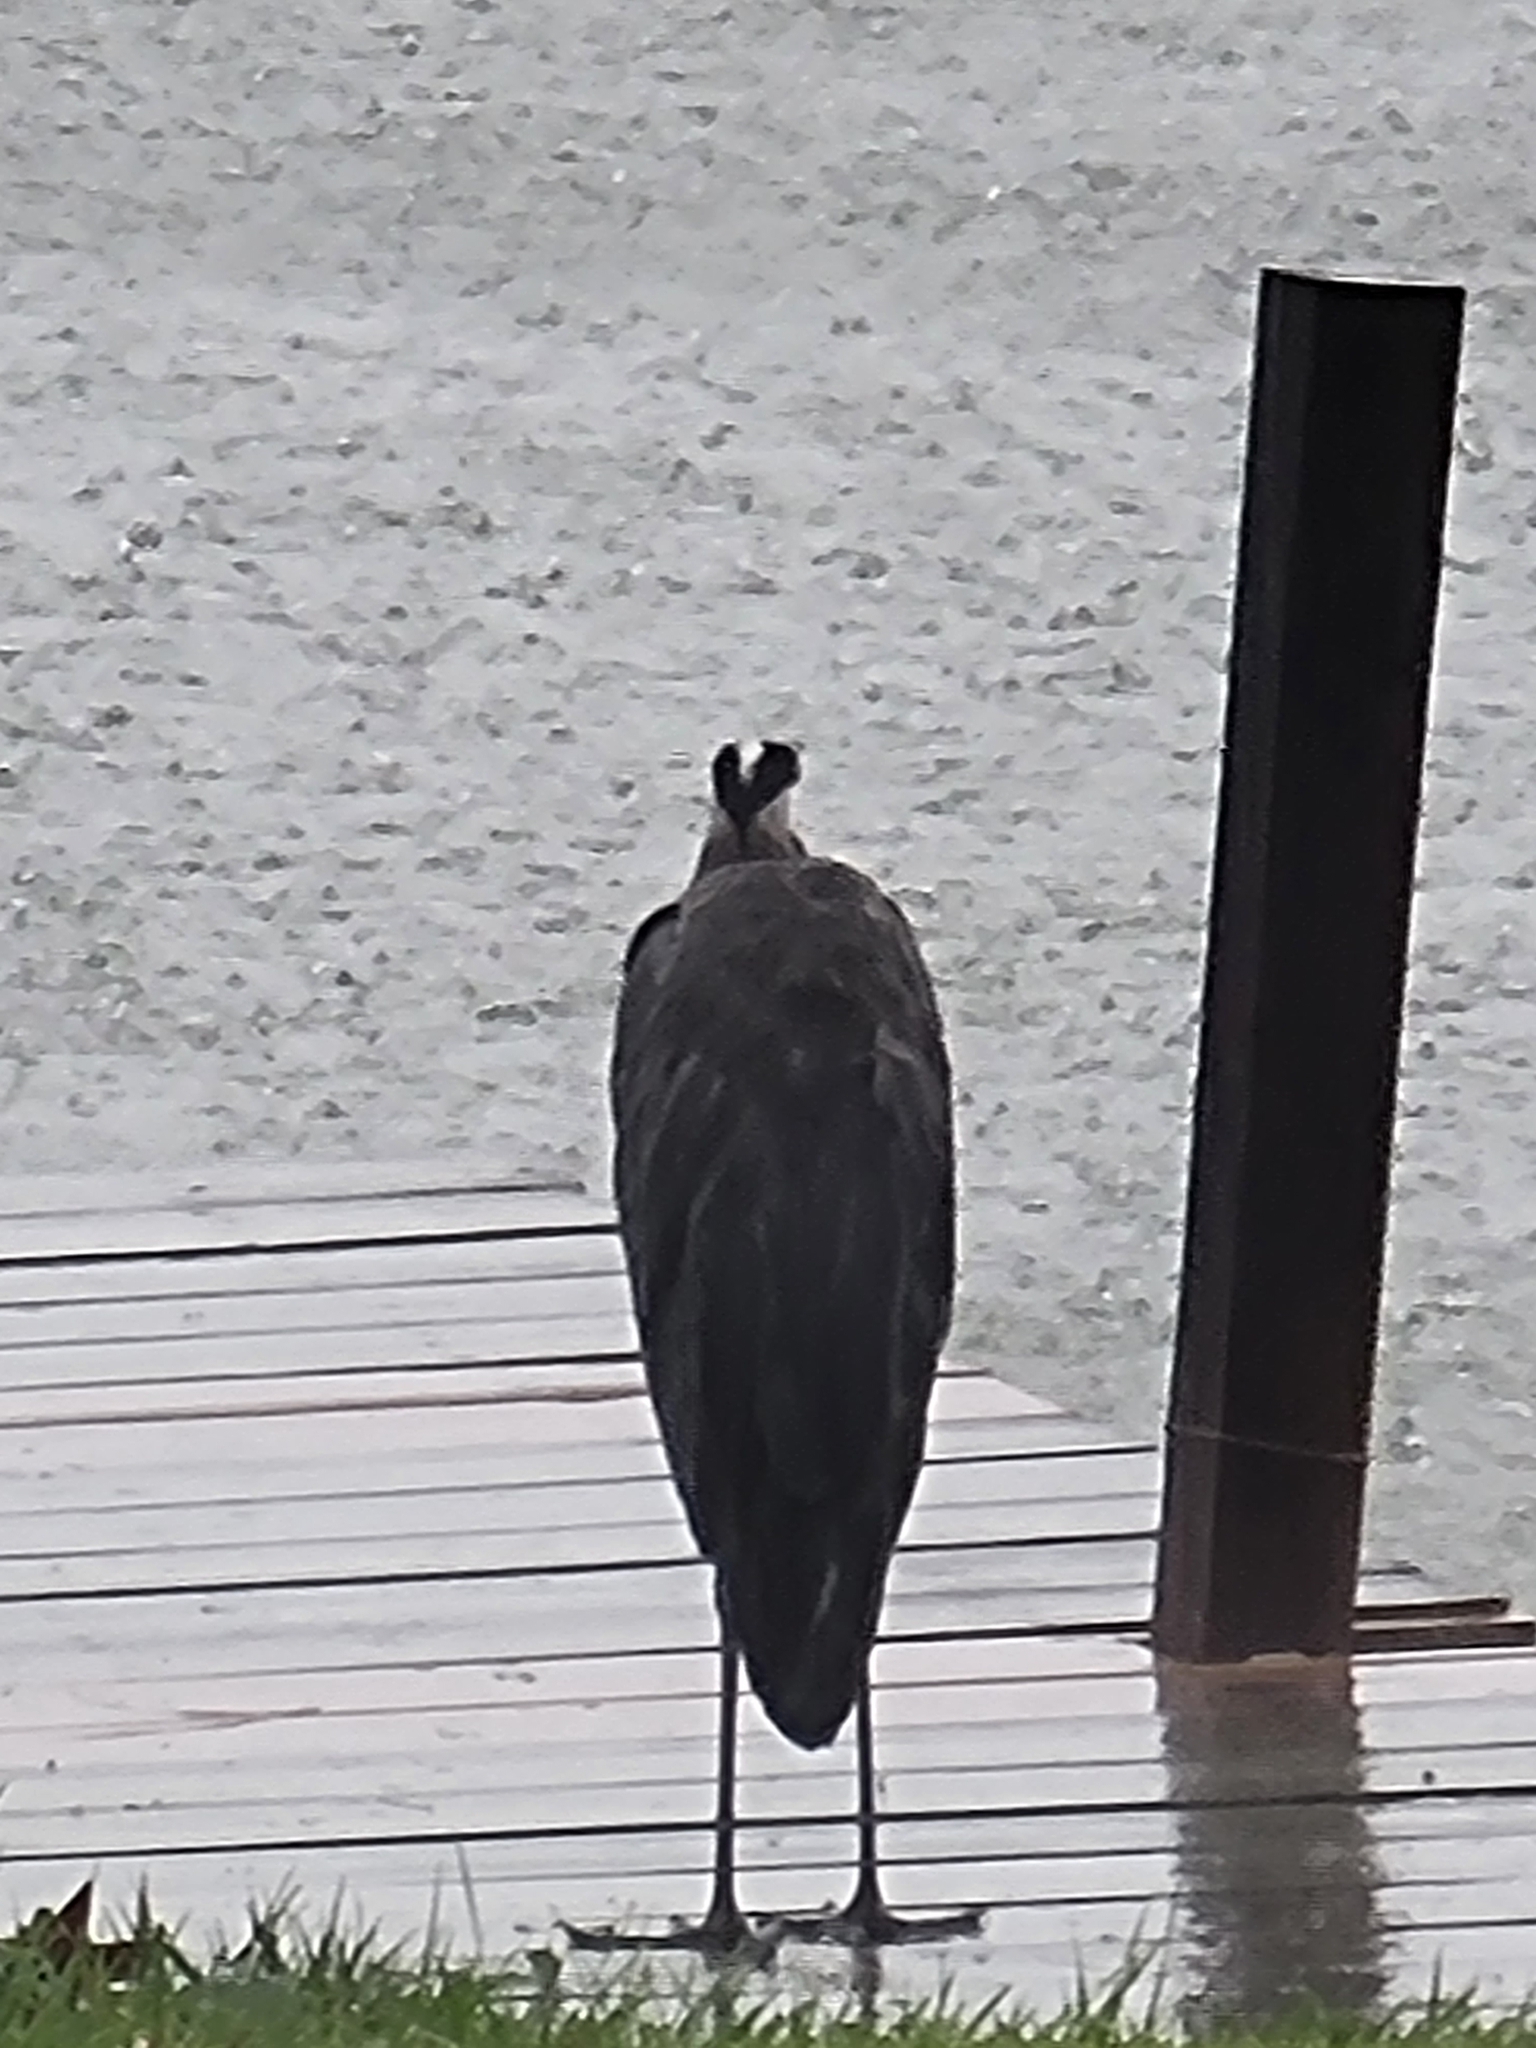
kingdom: Animalia
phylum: Chordata
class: Aves
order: Pelecaniformes
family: Ardeidae
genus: Ardea
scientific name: Ardea herodias
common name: Great blue heron
